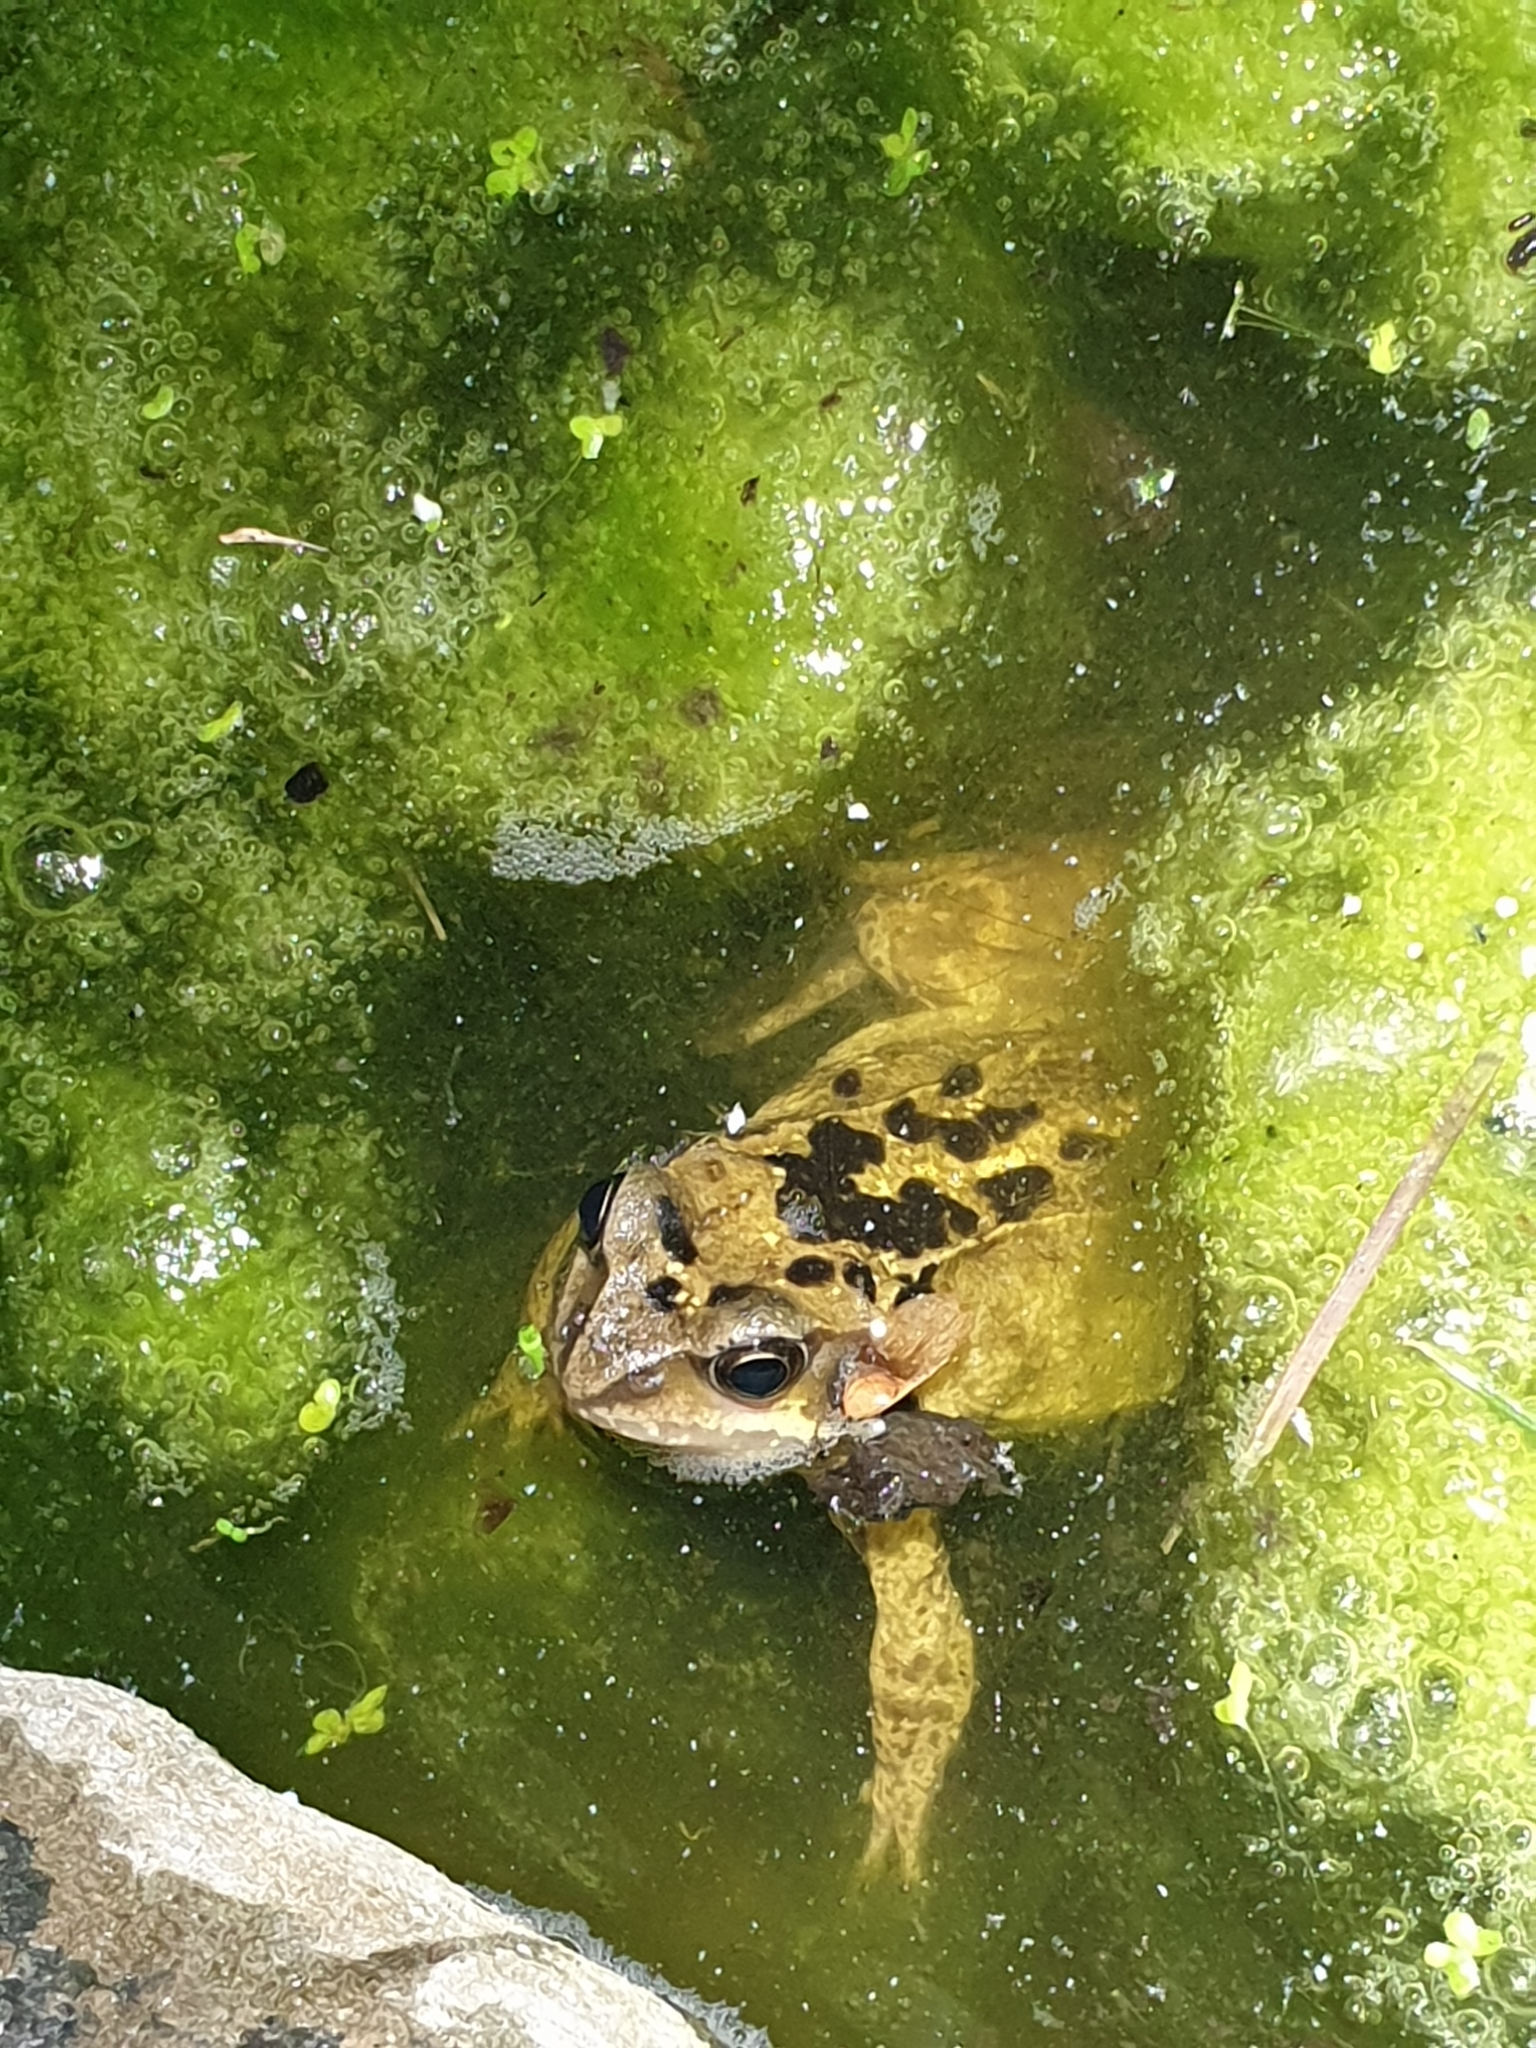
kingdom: Animalia
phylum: Chordata
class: Amphibia
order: Anura
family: Ranidae
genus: Rana
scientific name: Rana temporaria
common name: Common frog
